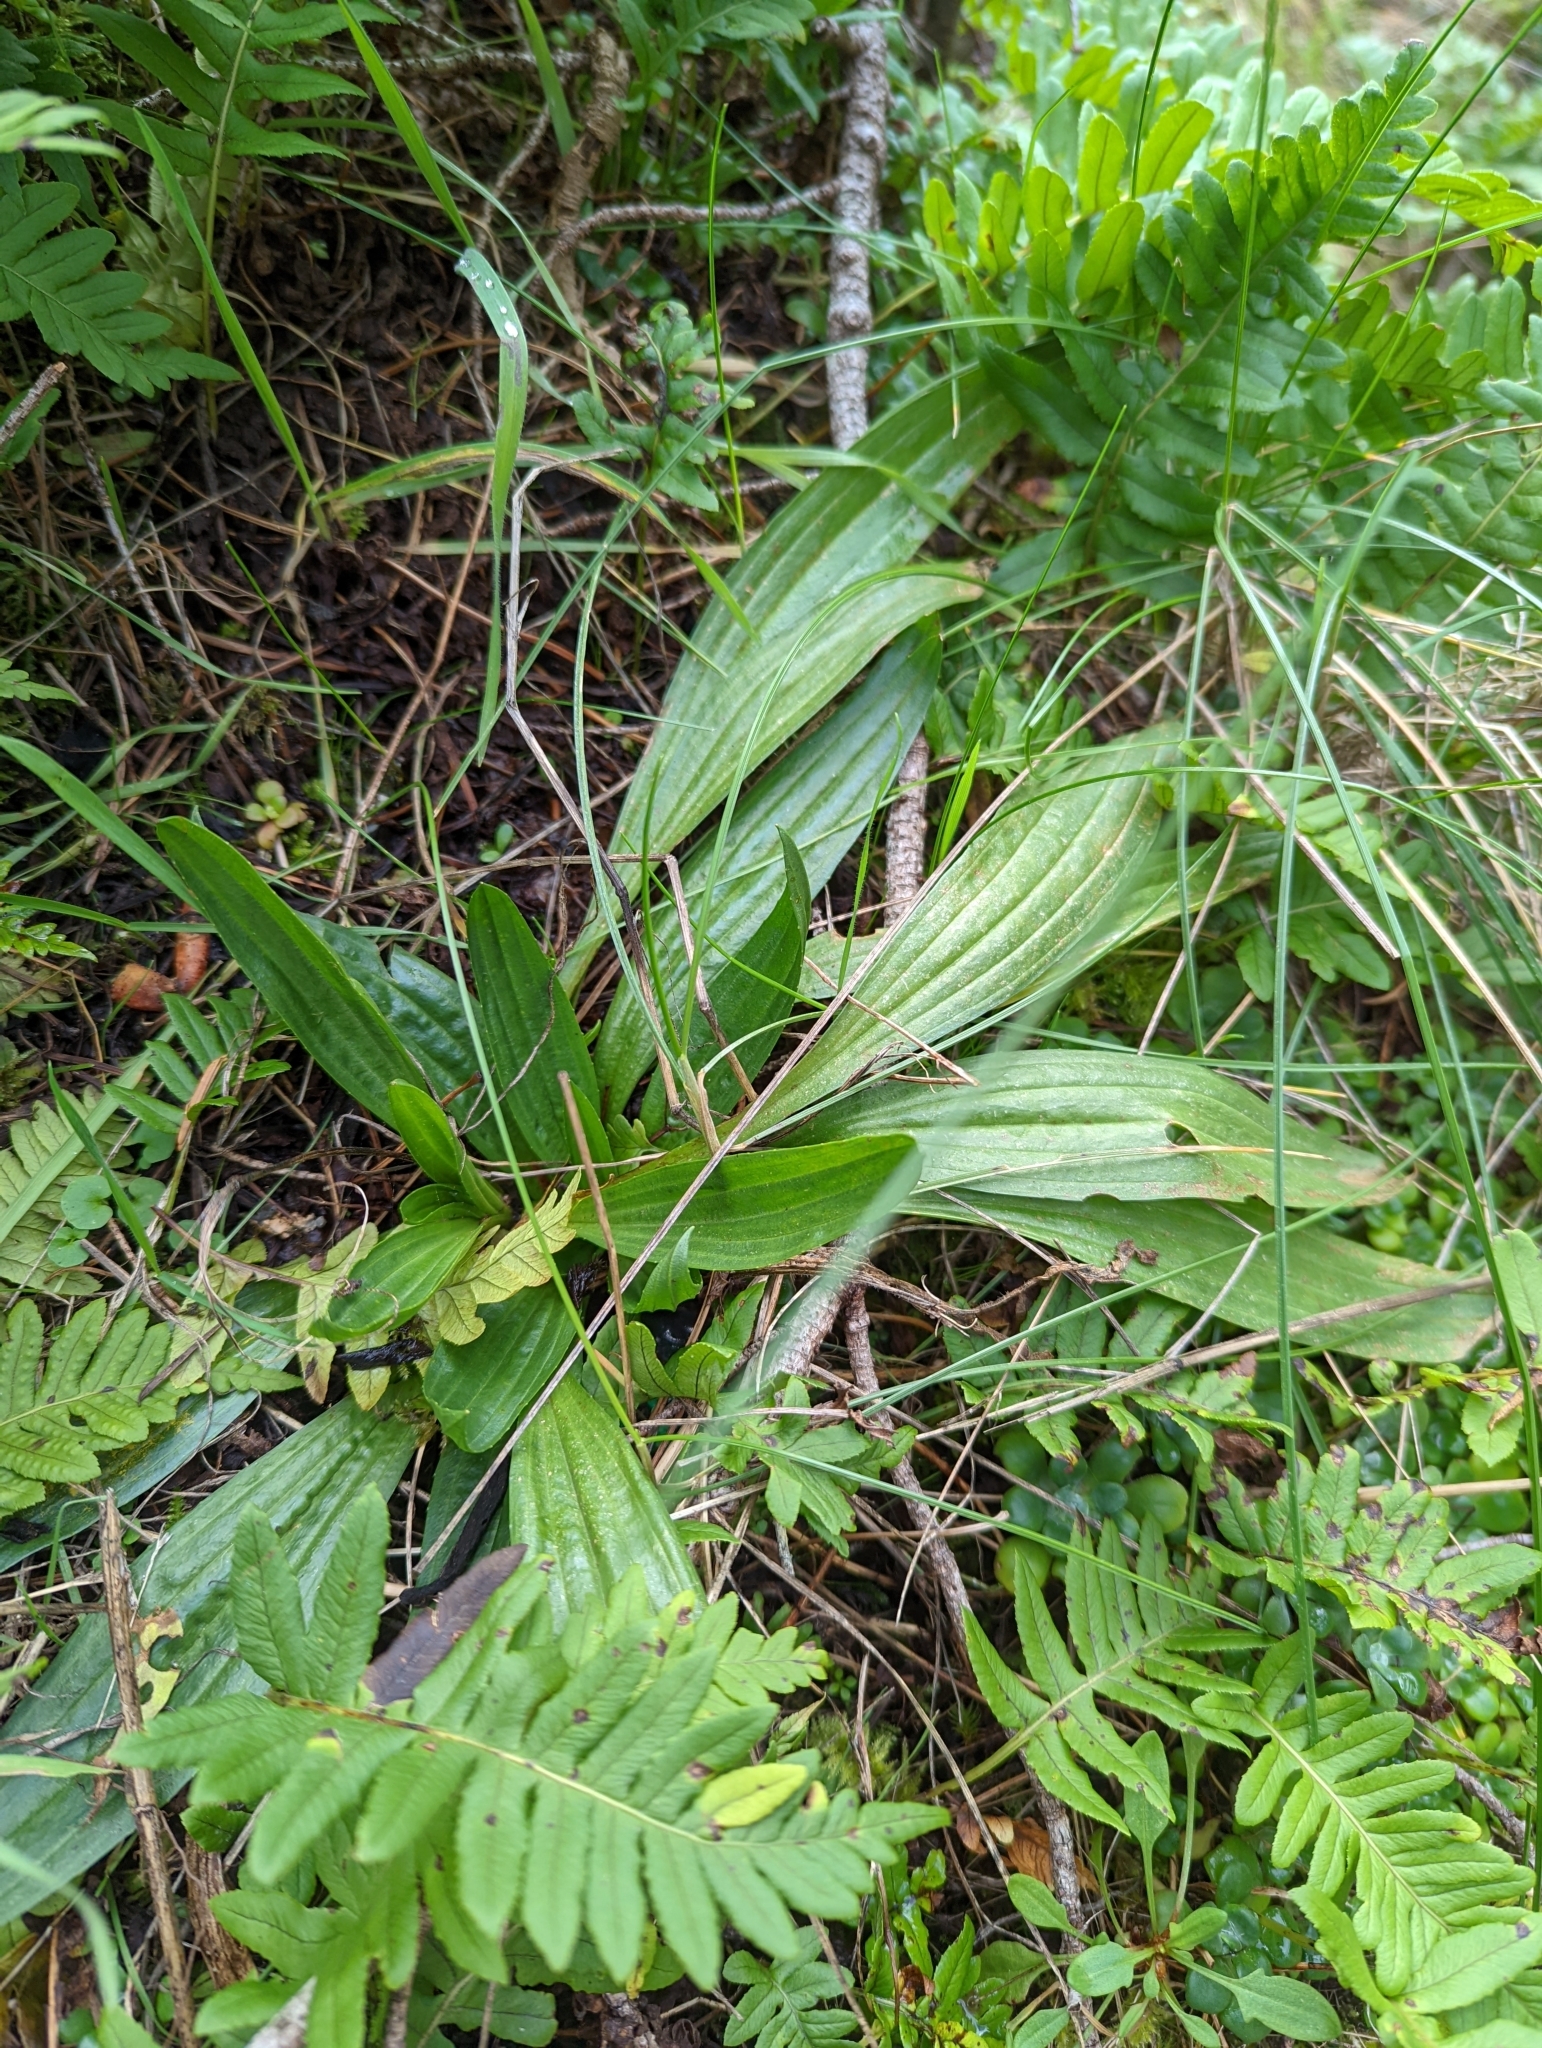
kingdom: Plantae
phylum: Tracheophyta
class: Magnoliopsida
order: Lamiales
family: Plantaginaceae
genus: Plantago
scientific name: Plantago lanceolata
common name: Ribwort plantain
